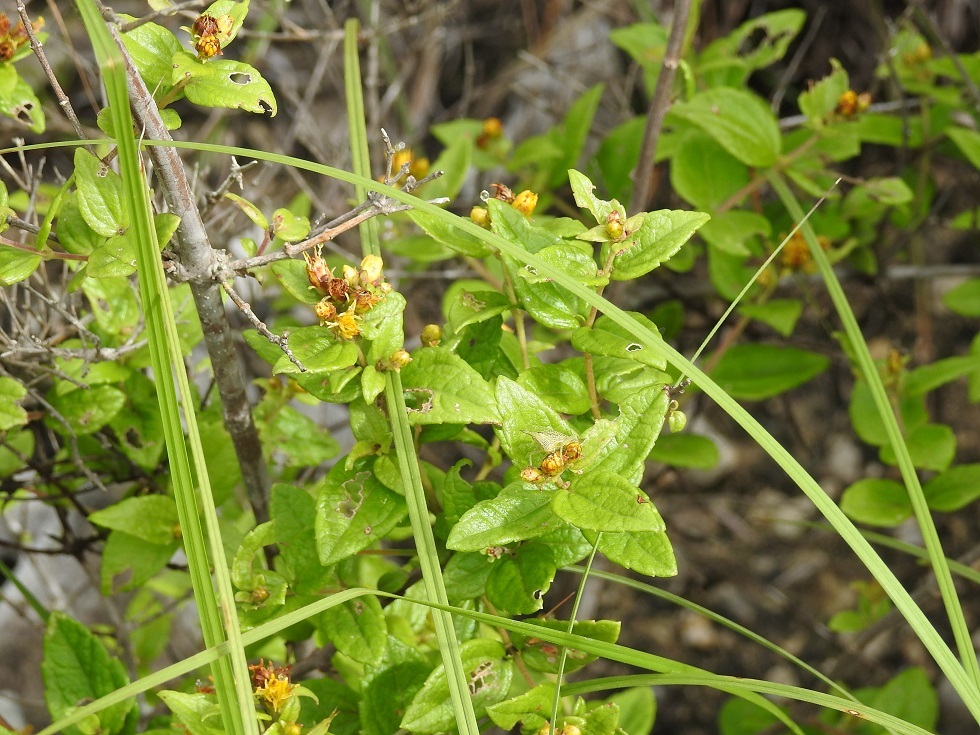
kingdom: Plantae
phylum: Tracheophyta
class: Magnoliopsida
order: Asterales
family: Asteraceae
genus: Calea
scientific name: Calea urticifolia
